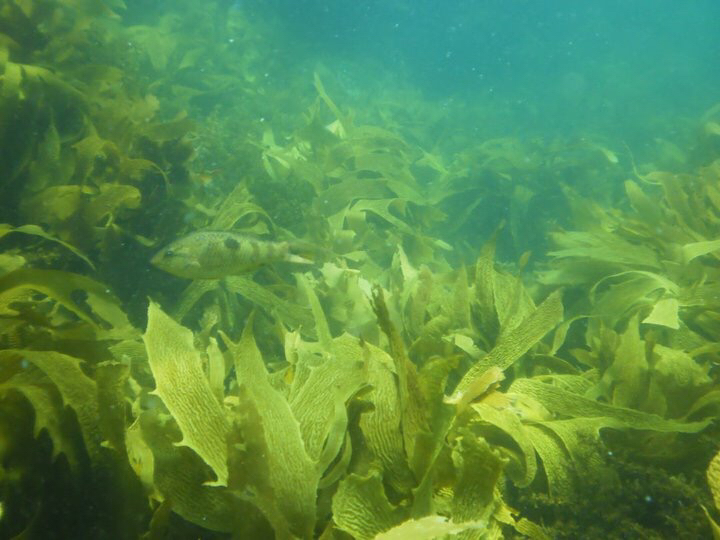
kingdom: Animalia
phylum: Chordata
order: Perciformes
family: Labridae
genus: Notolabrus
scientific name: Notolabrus celidotus
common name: Spotty
